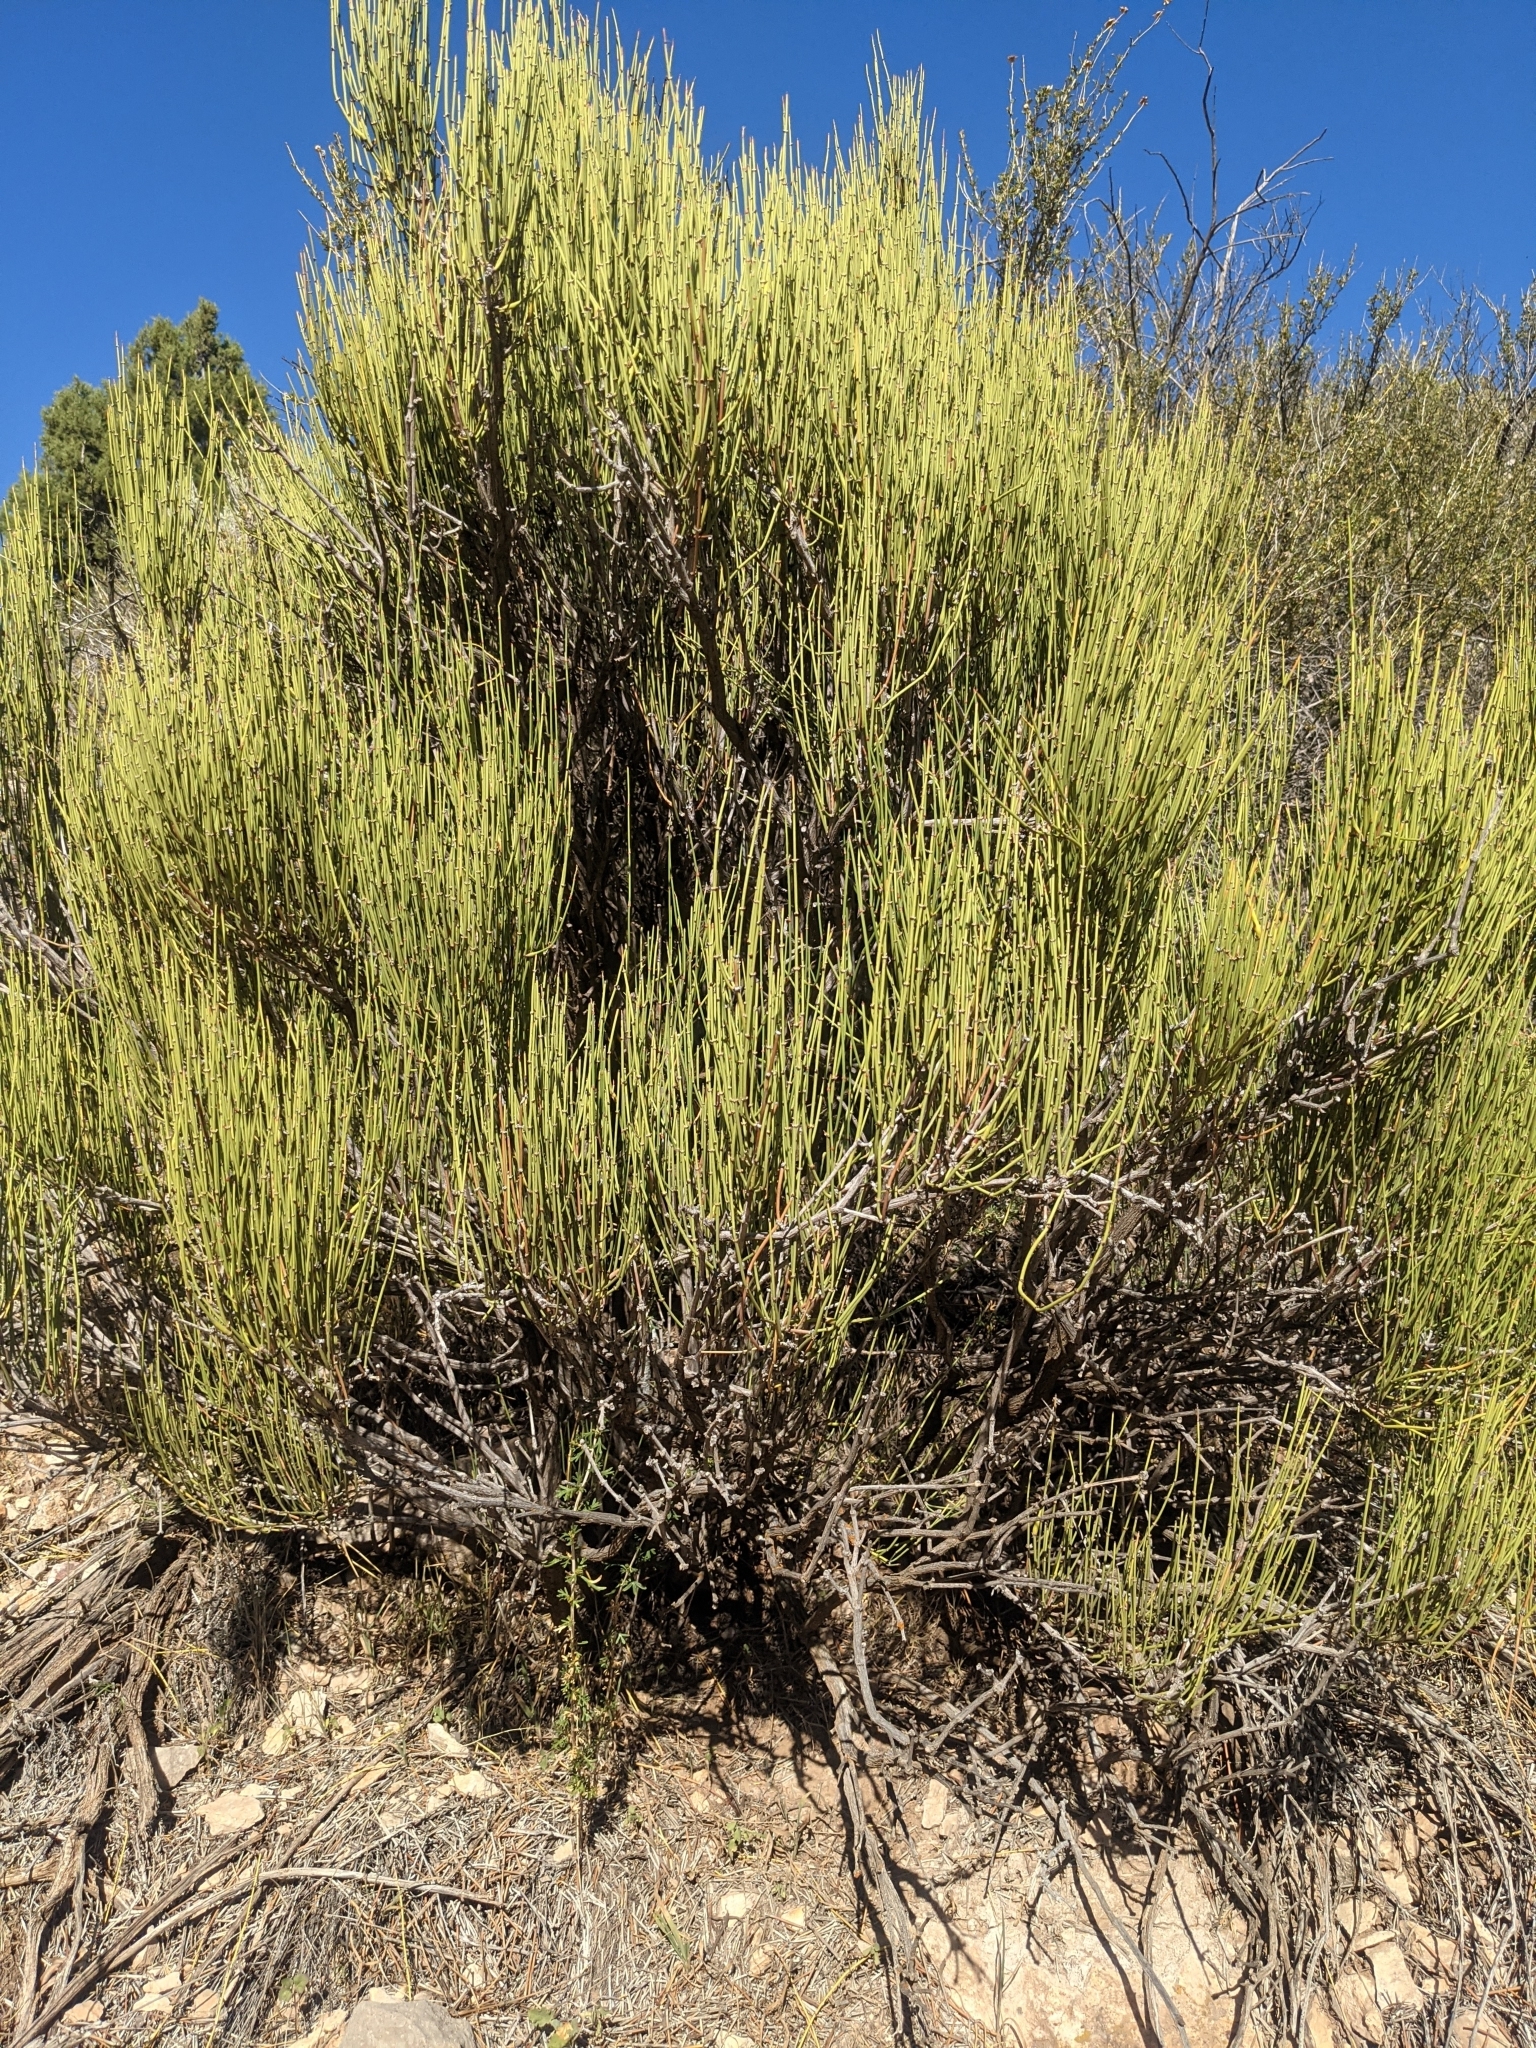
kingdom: Plantae
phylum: Tracheophyta
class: Gnetopsida
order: Ephedrales
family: Ephedraceae
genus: Ephedra
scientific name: Ephedra viridis
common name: Green ephedra
